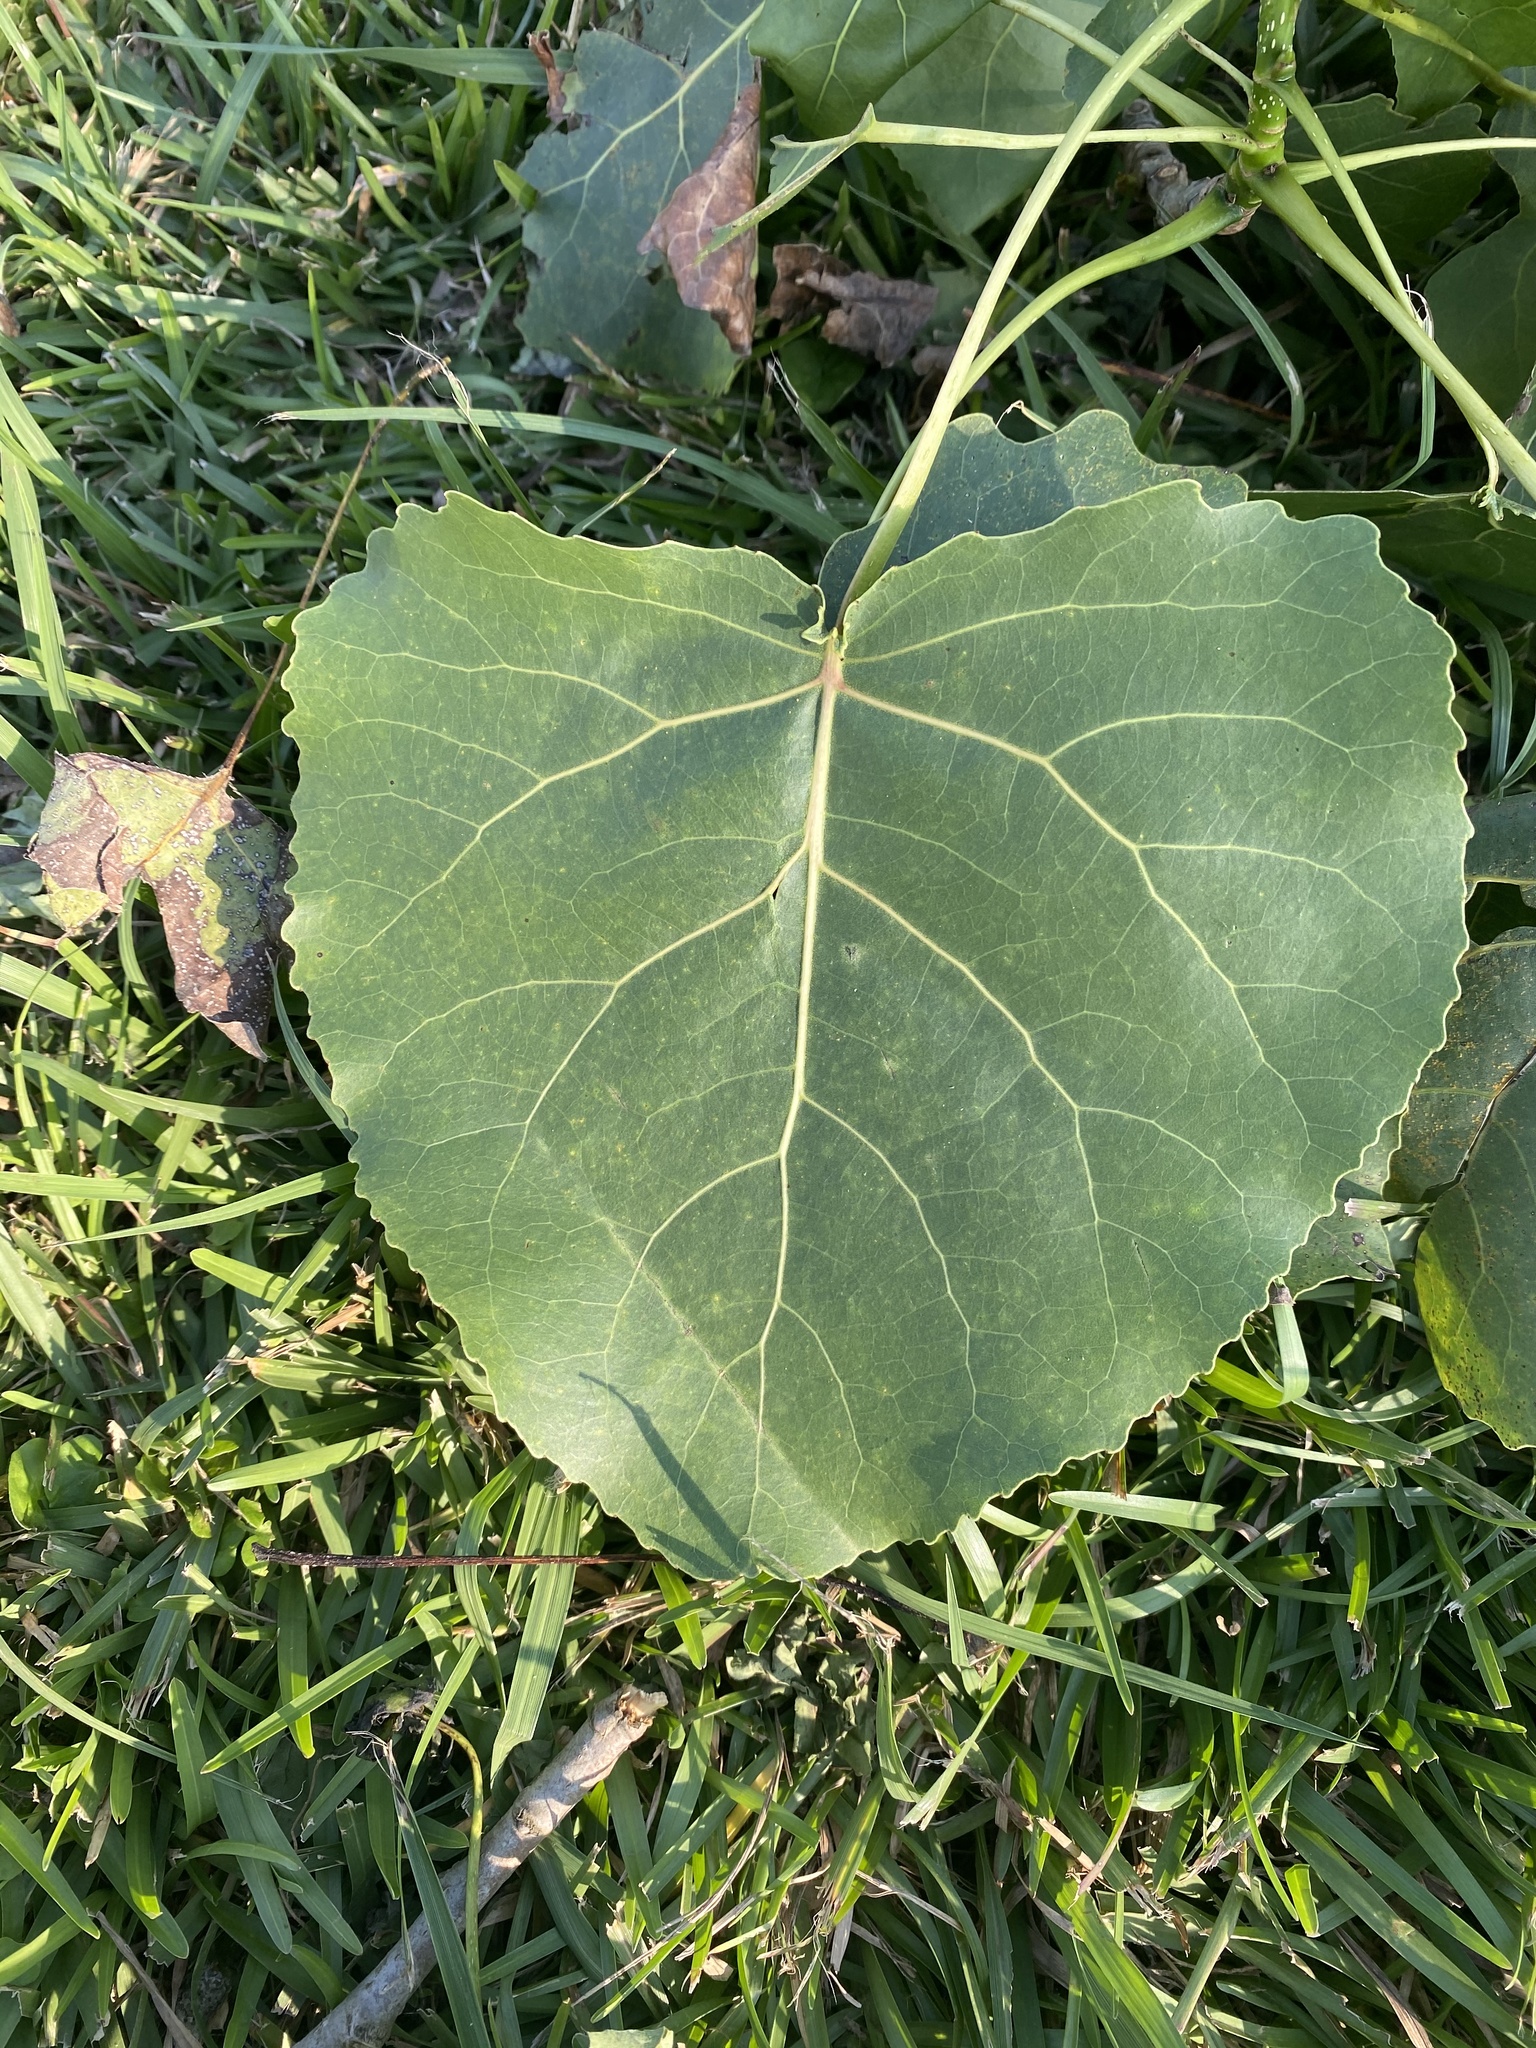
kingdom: Plantae
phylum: Tracheophyta
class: Magnoliopsida
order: Malpighiales
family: Salicaceae
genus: Populus
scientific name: Populus deltoides
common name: Eastern cottonwood
